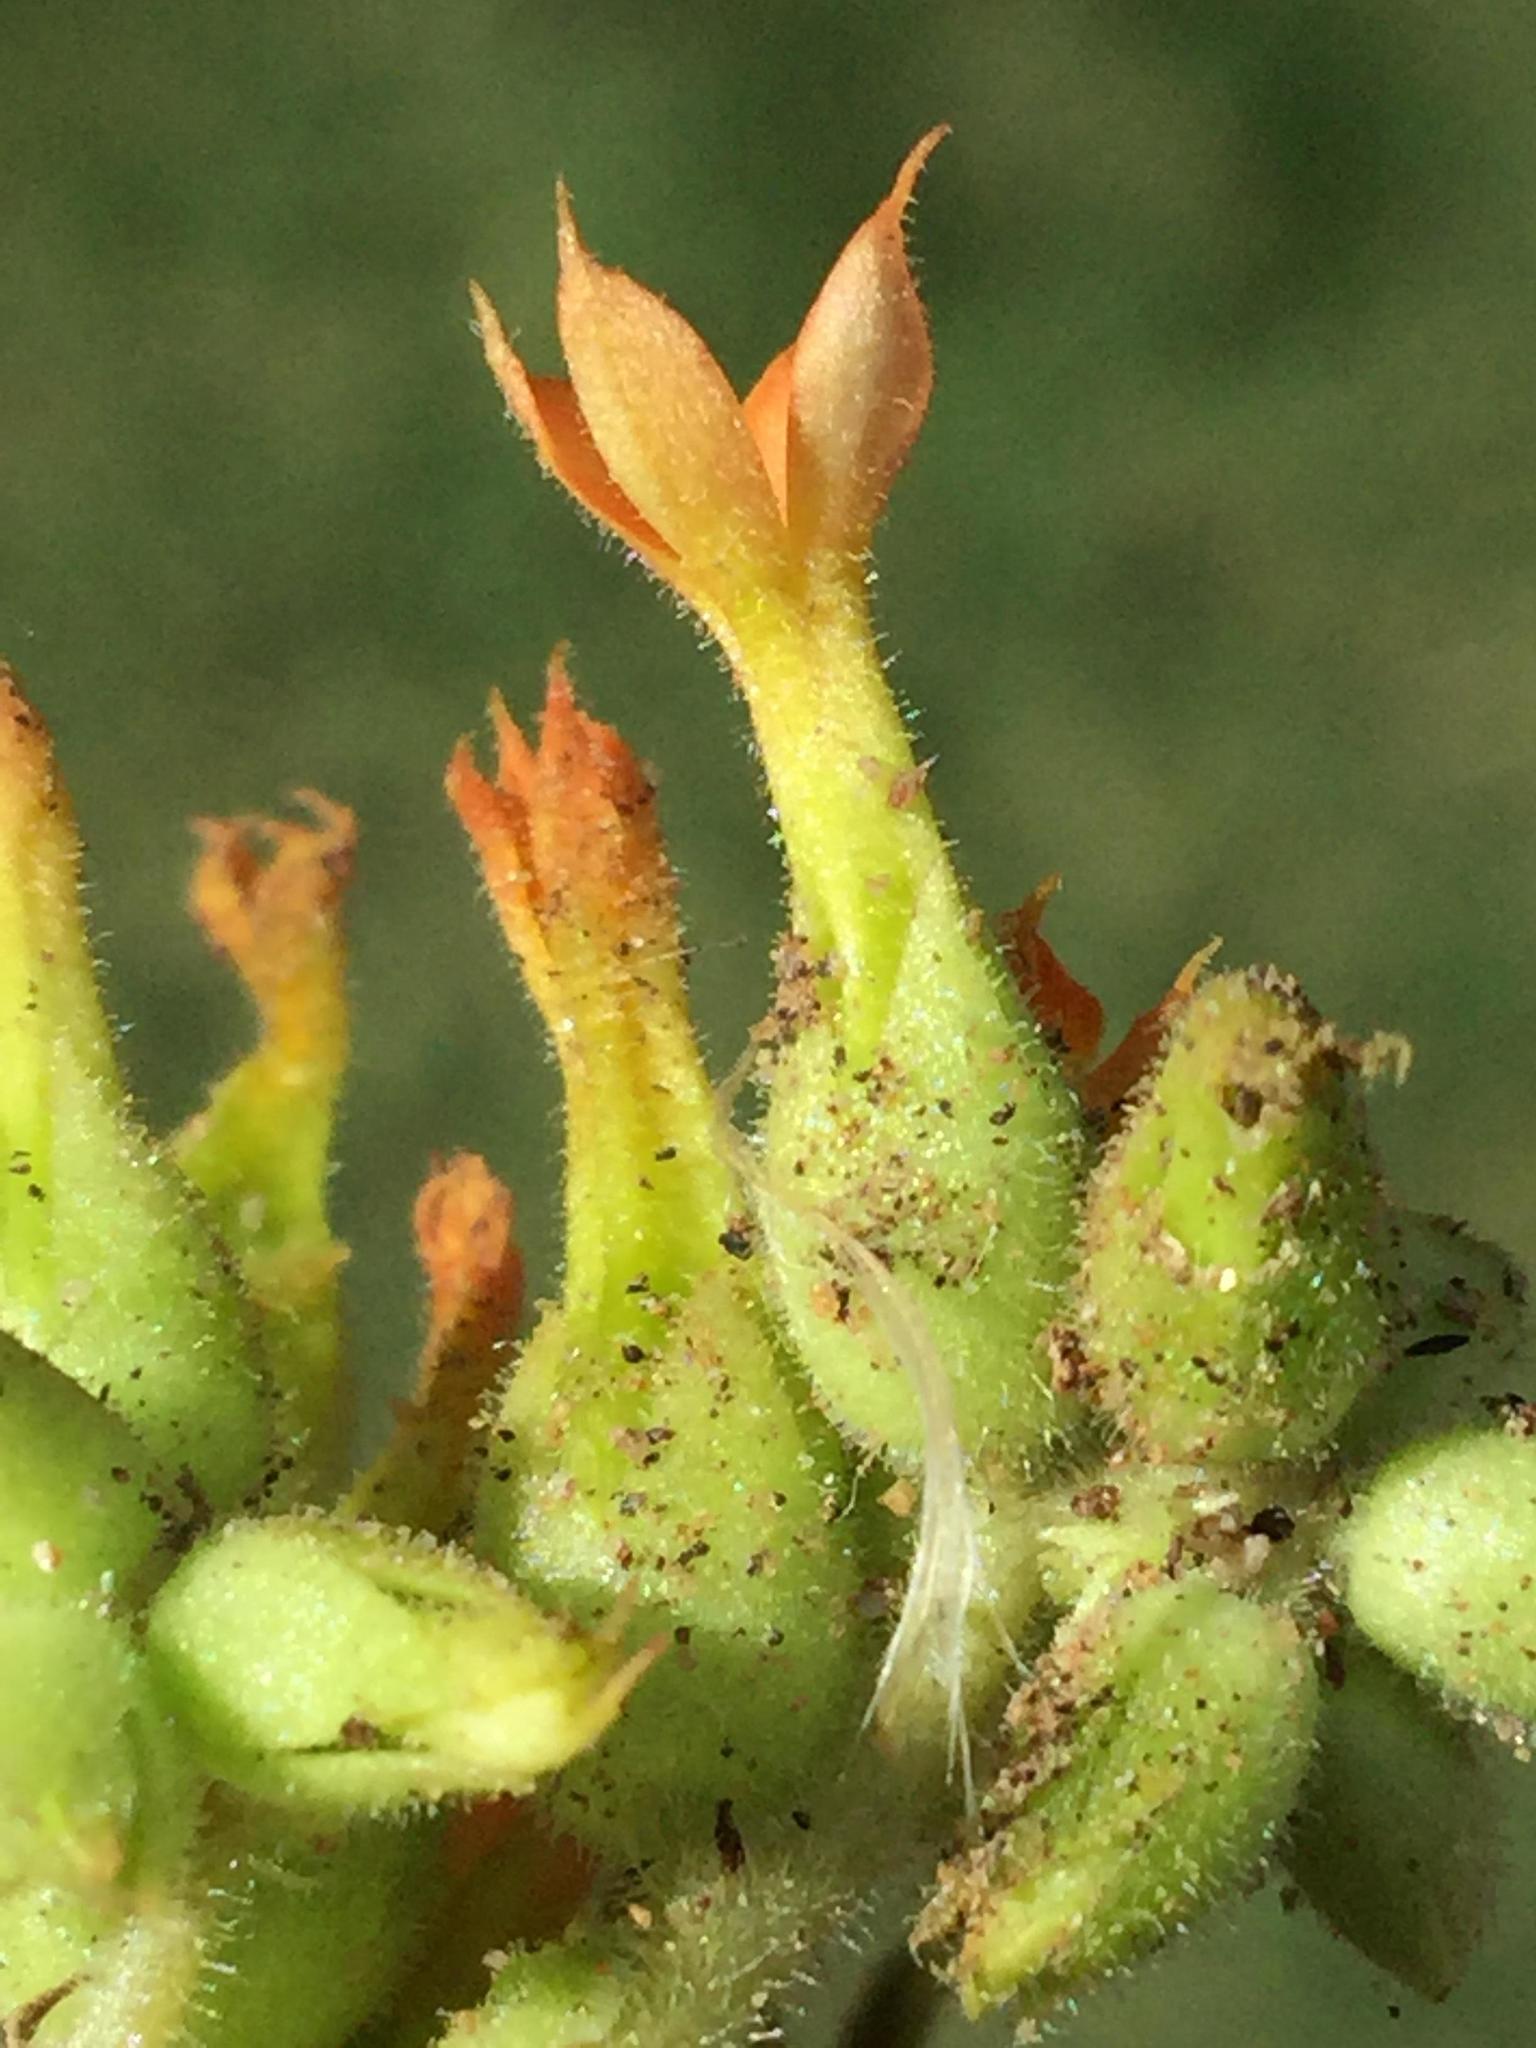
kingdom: Plantae
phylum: Tracheophyta
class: Magnoliopsida
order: Saxifragales
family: Crassulaceae
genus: Kalanchoe
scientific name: Kalanchoe lanceolata
